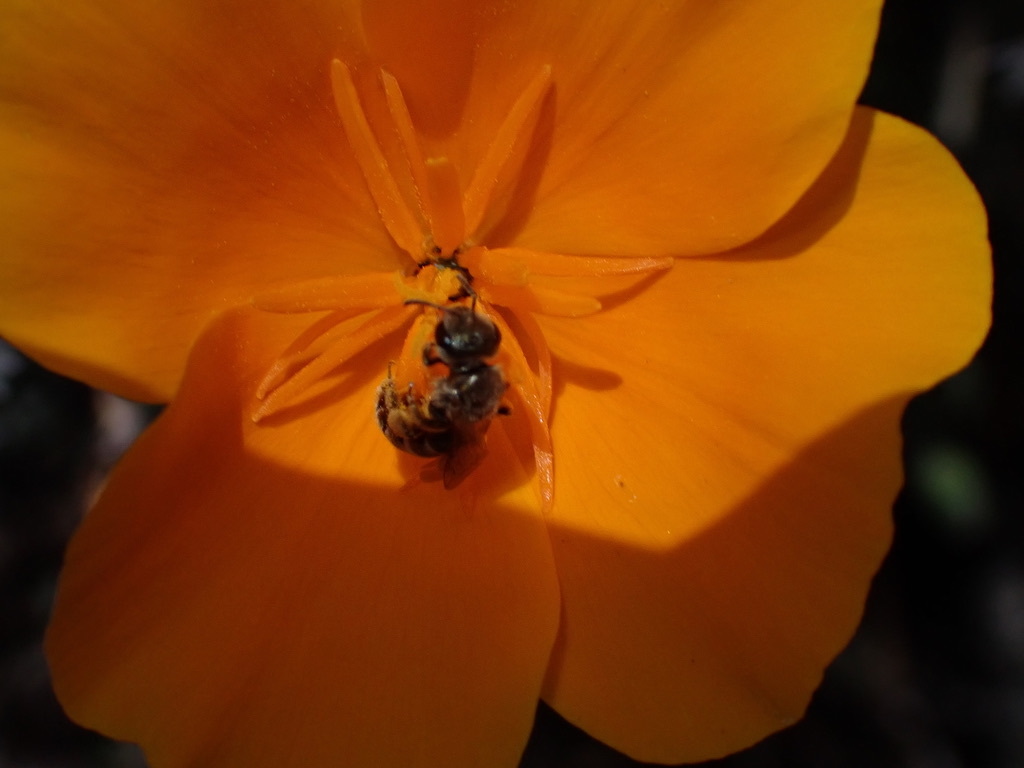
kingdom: Animalia
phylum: Arthropoda
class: Insecta
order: Hymenoptera
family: Halictidae
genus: Halictus
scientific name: Halictus tripartitus
